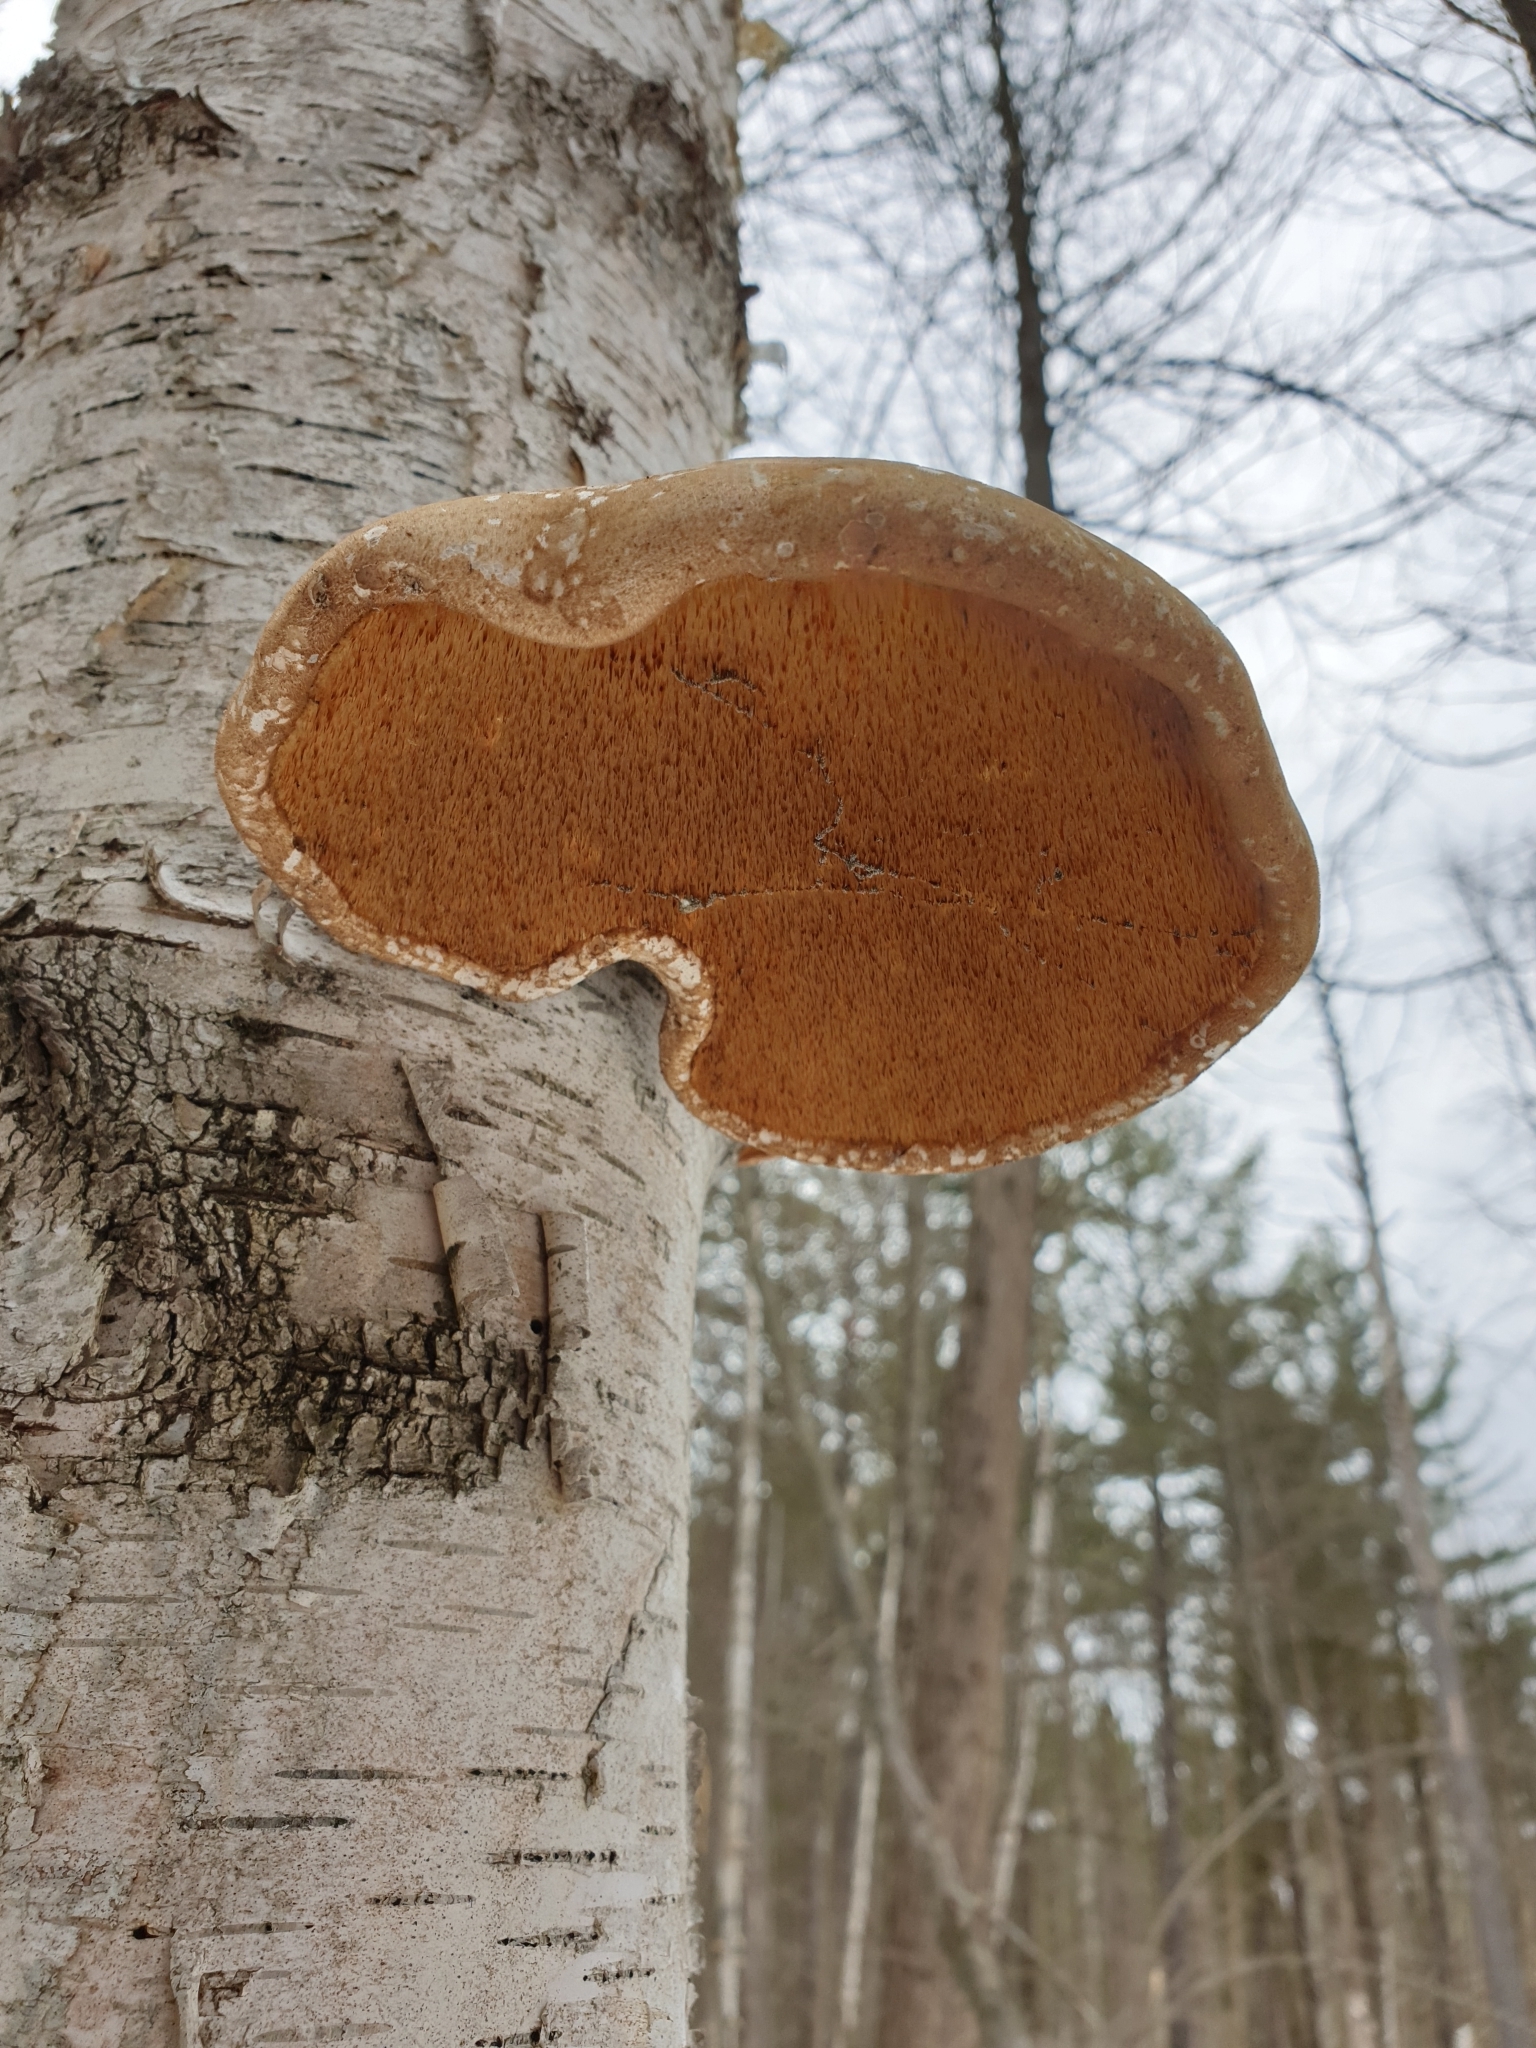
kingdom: Fungi
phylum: Basidiomycota
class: Agaricomycetes
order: Polyporales
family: Fomitopsidaceae
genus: Fomitopsis
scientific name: Fomitopsis betulina
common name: Birch polypore
